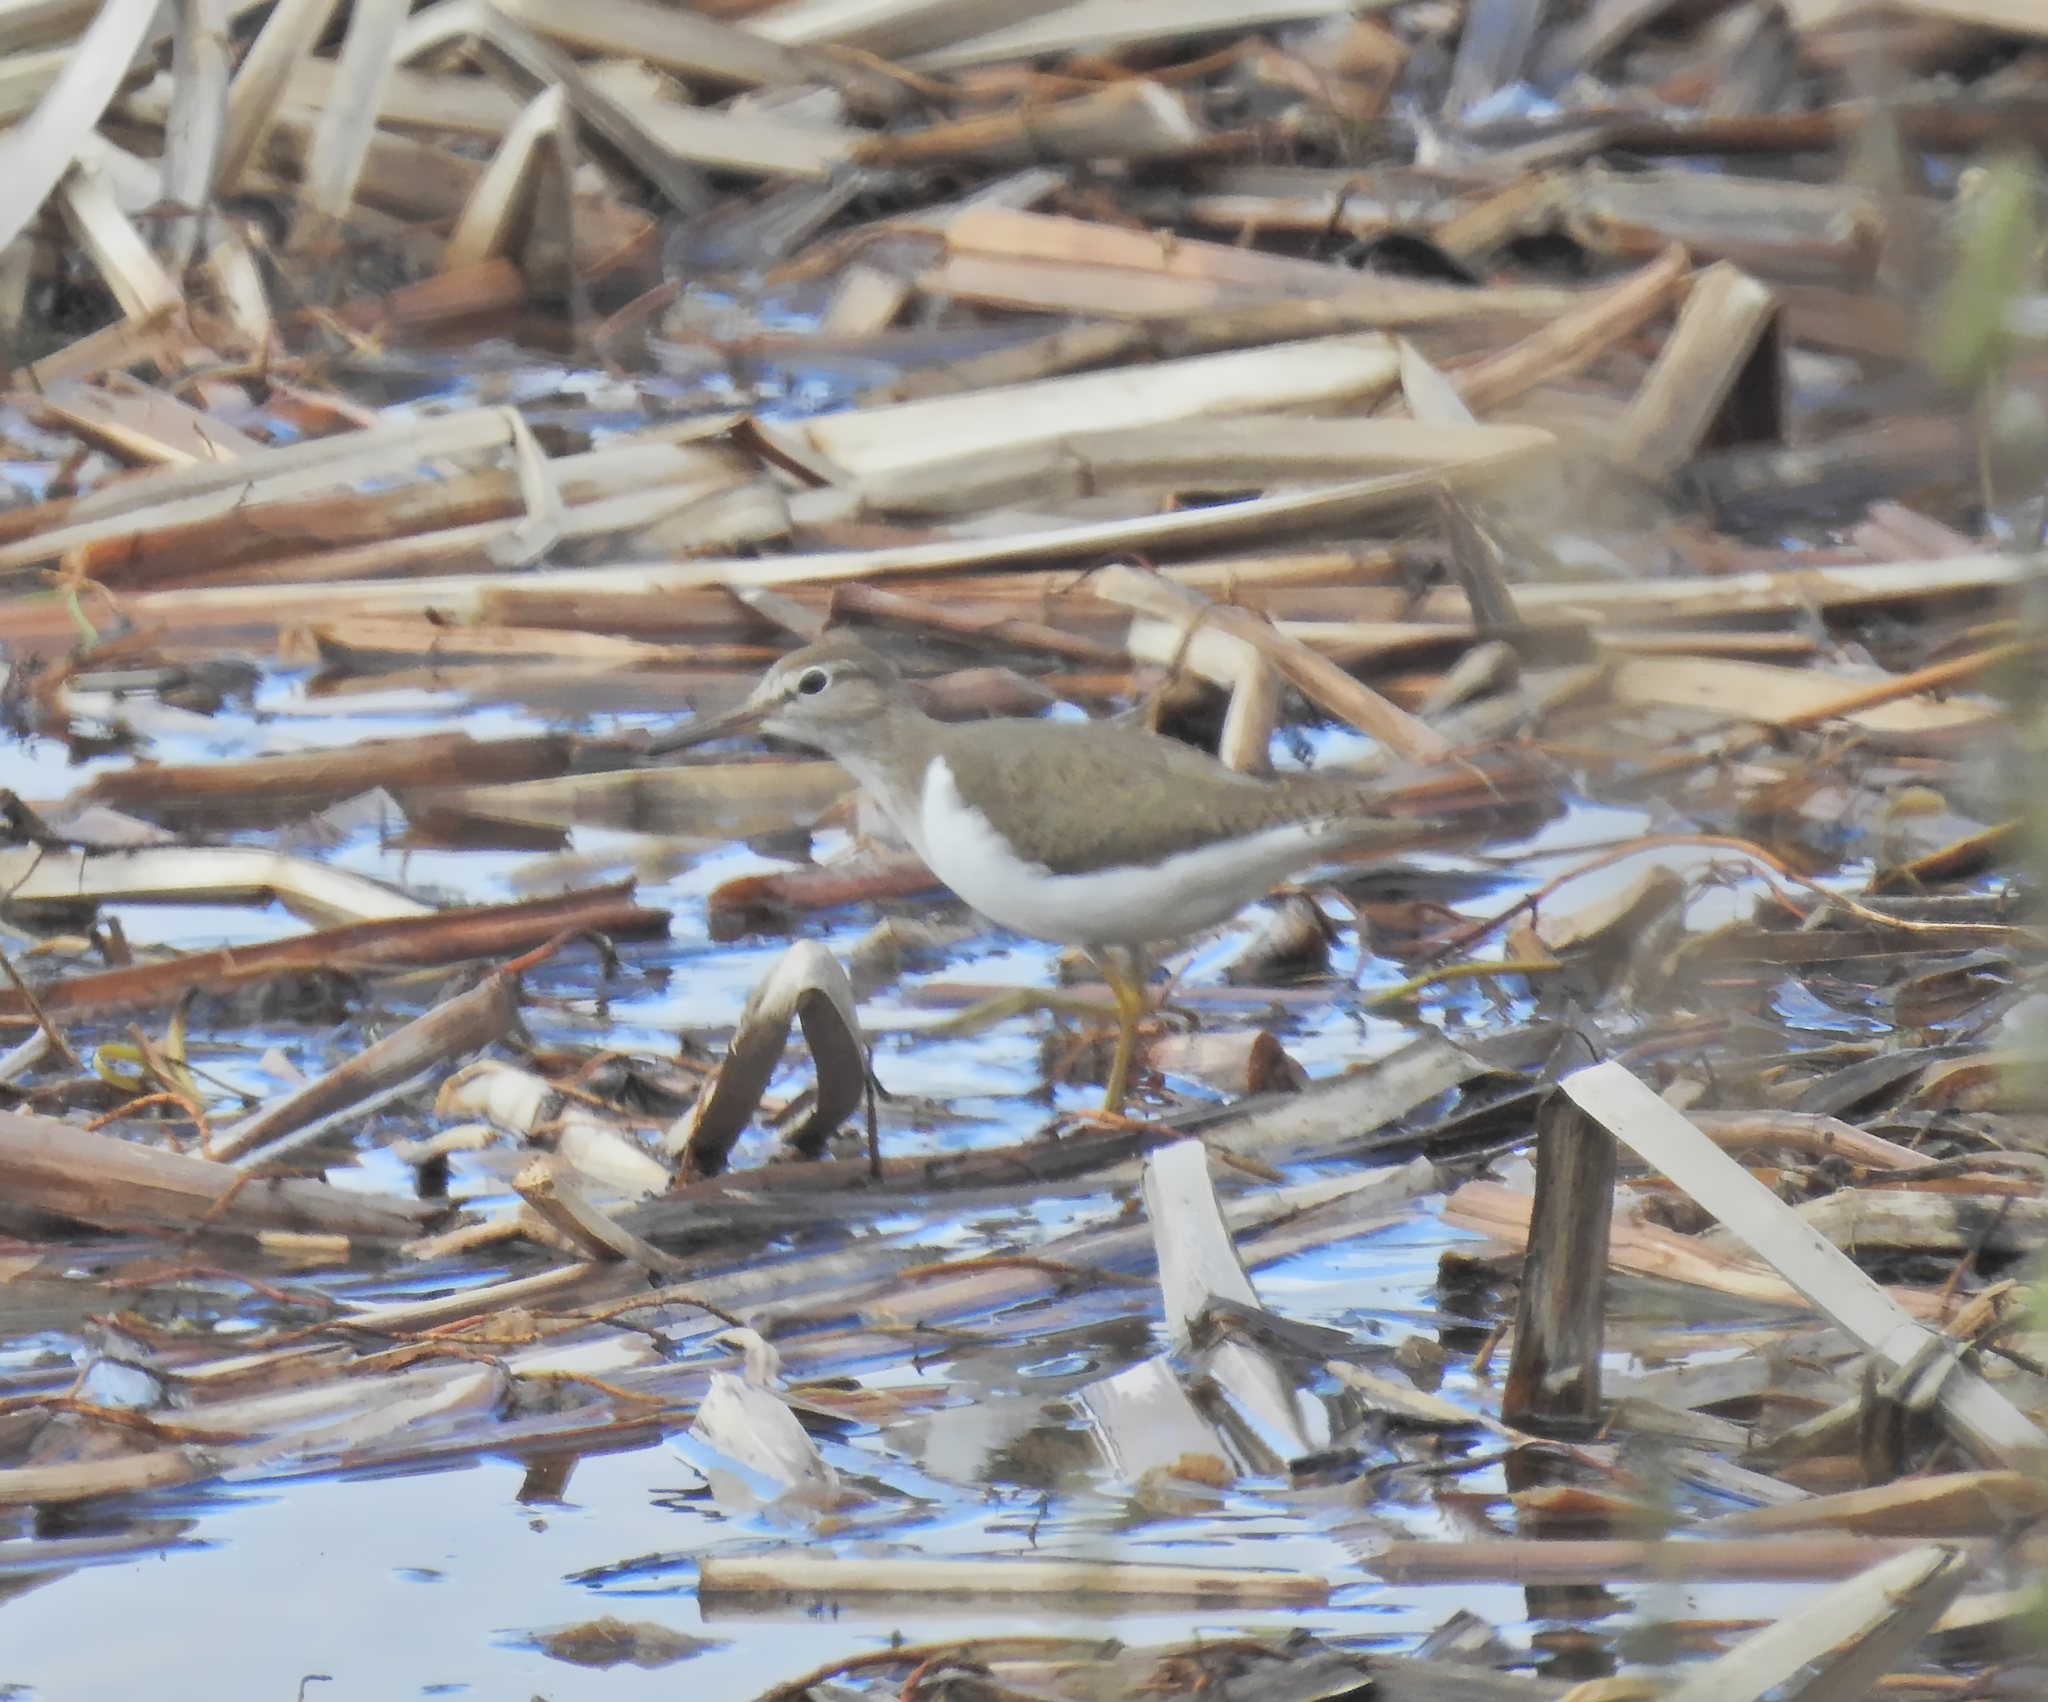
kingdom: Animalia
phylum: Chordata
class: Aves
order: Charadriiformes
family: Scolopacidae
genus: Actitis
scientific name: Actitis hypoleucos
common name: Common sandpiper
